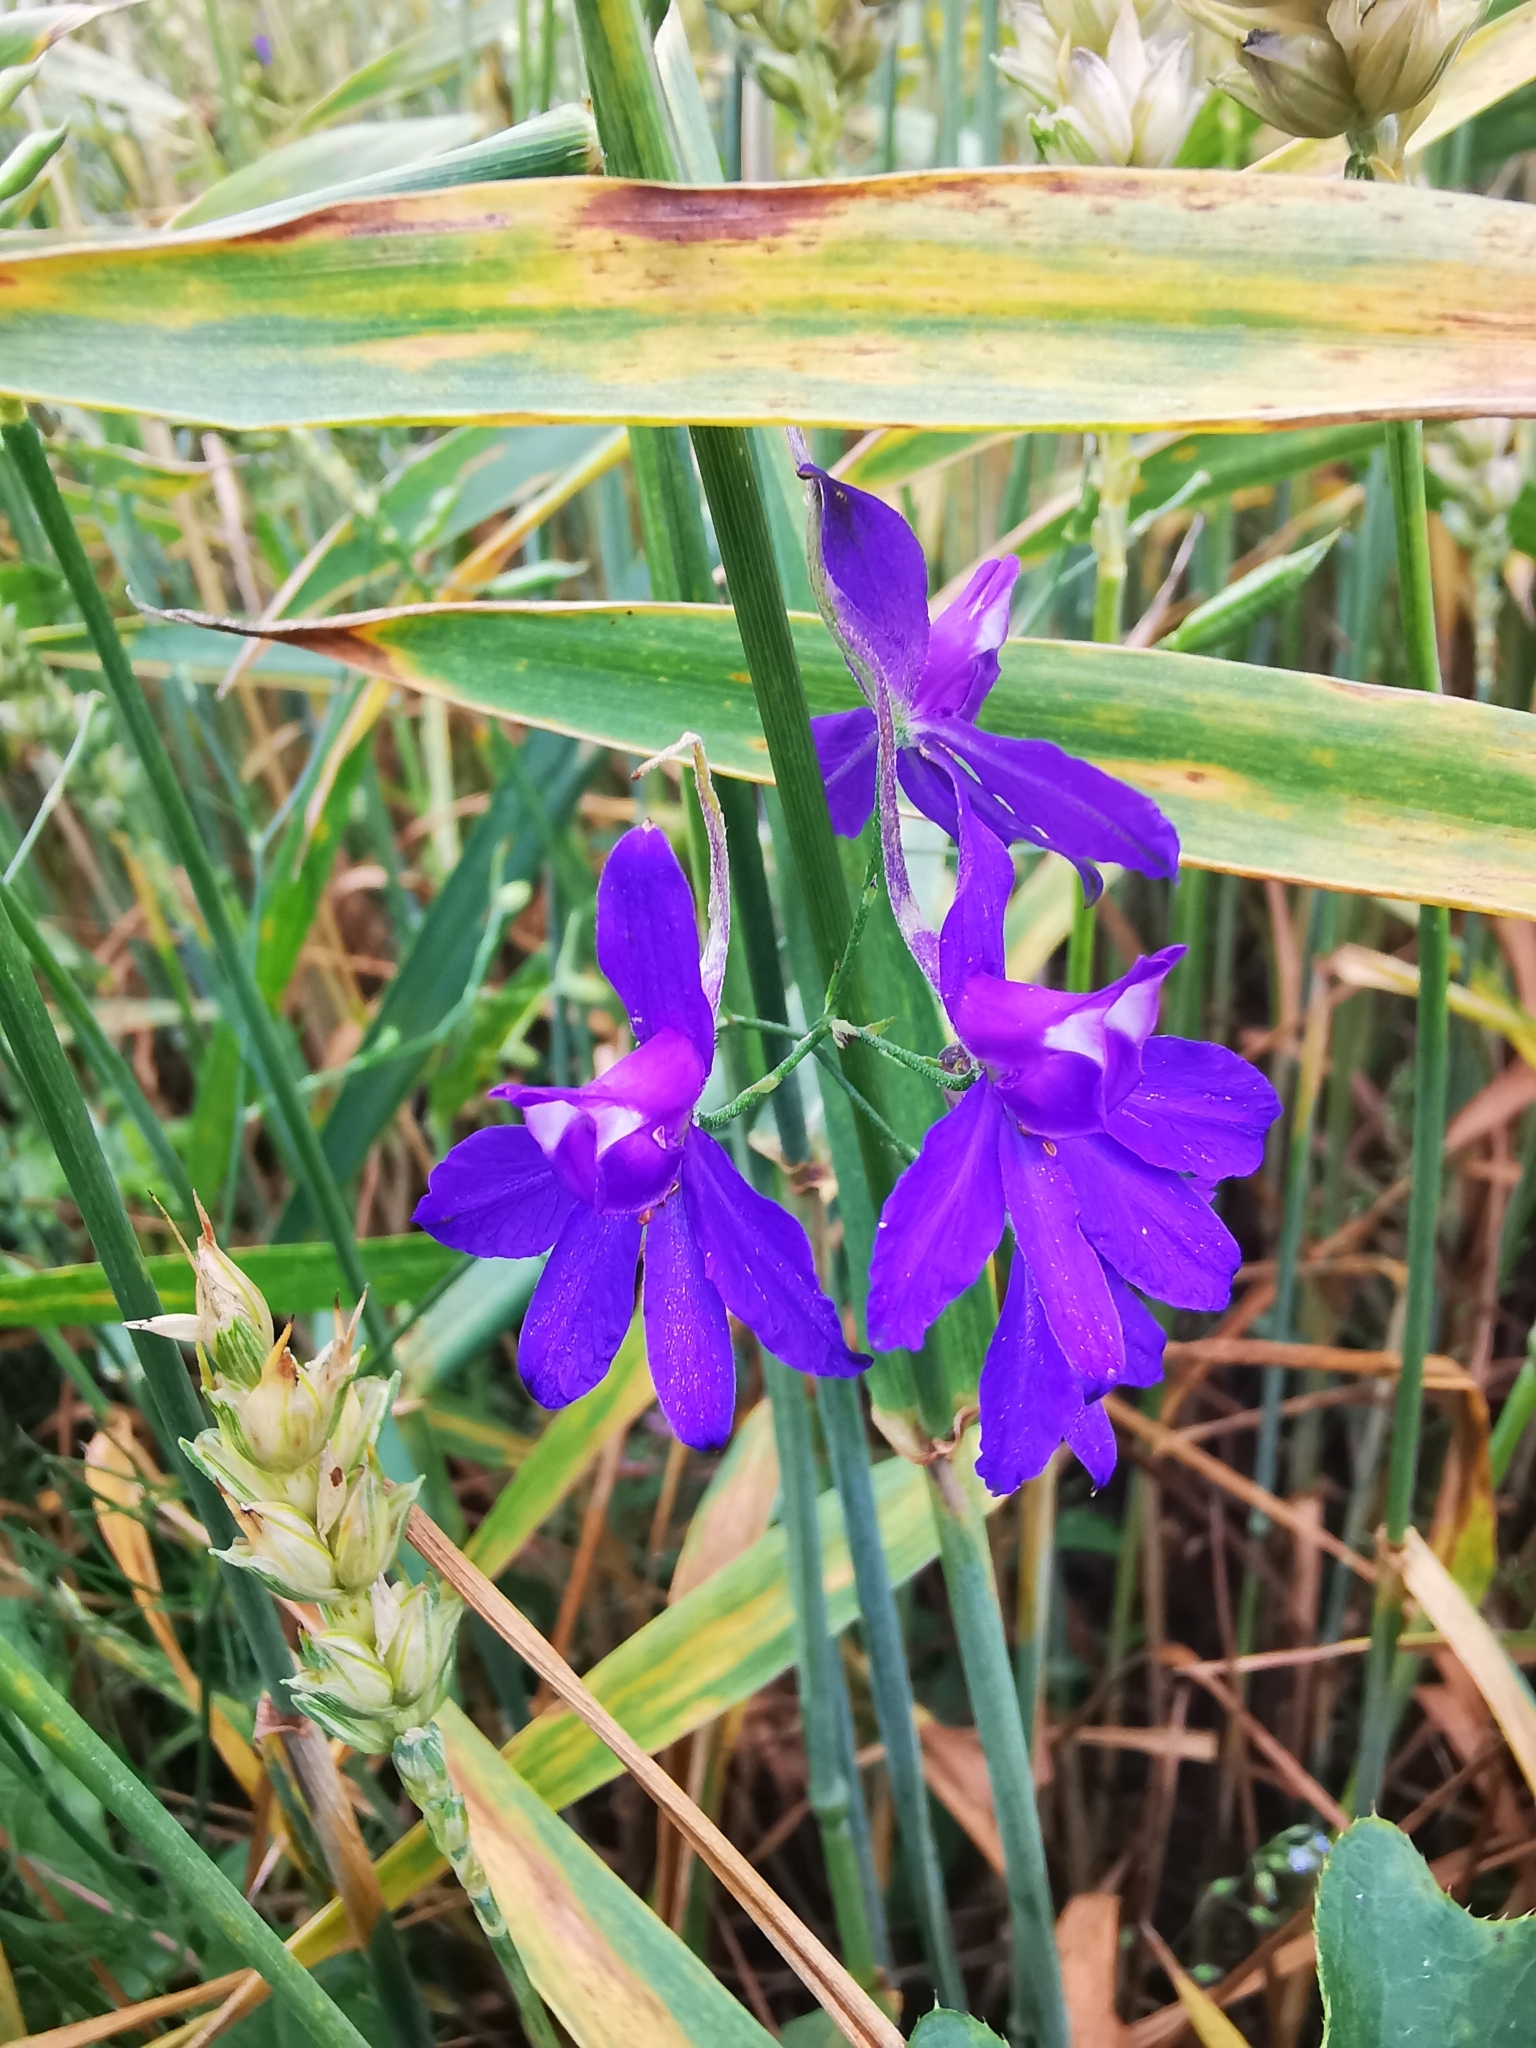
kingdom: Plantae
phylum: Tracheophyta
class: Magnoliopsida
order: Ranunculales
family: Ranunculaceae
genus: Delphinium
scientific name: Delphinium consolida
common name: Branching larkspur
